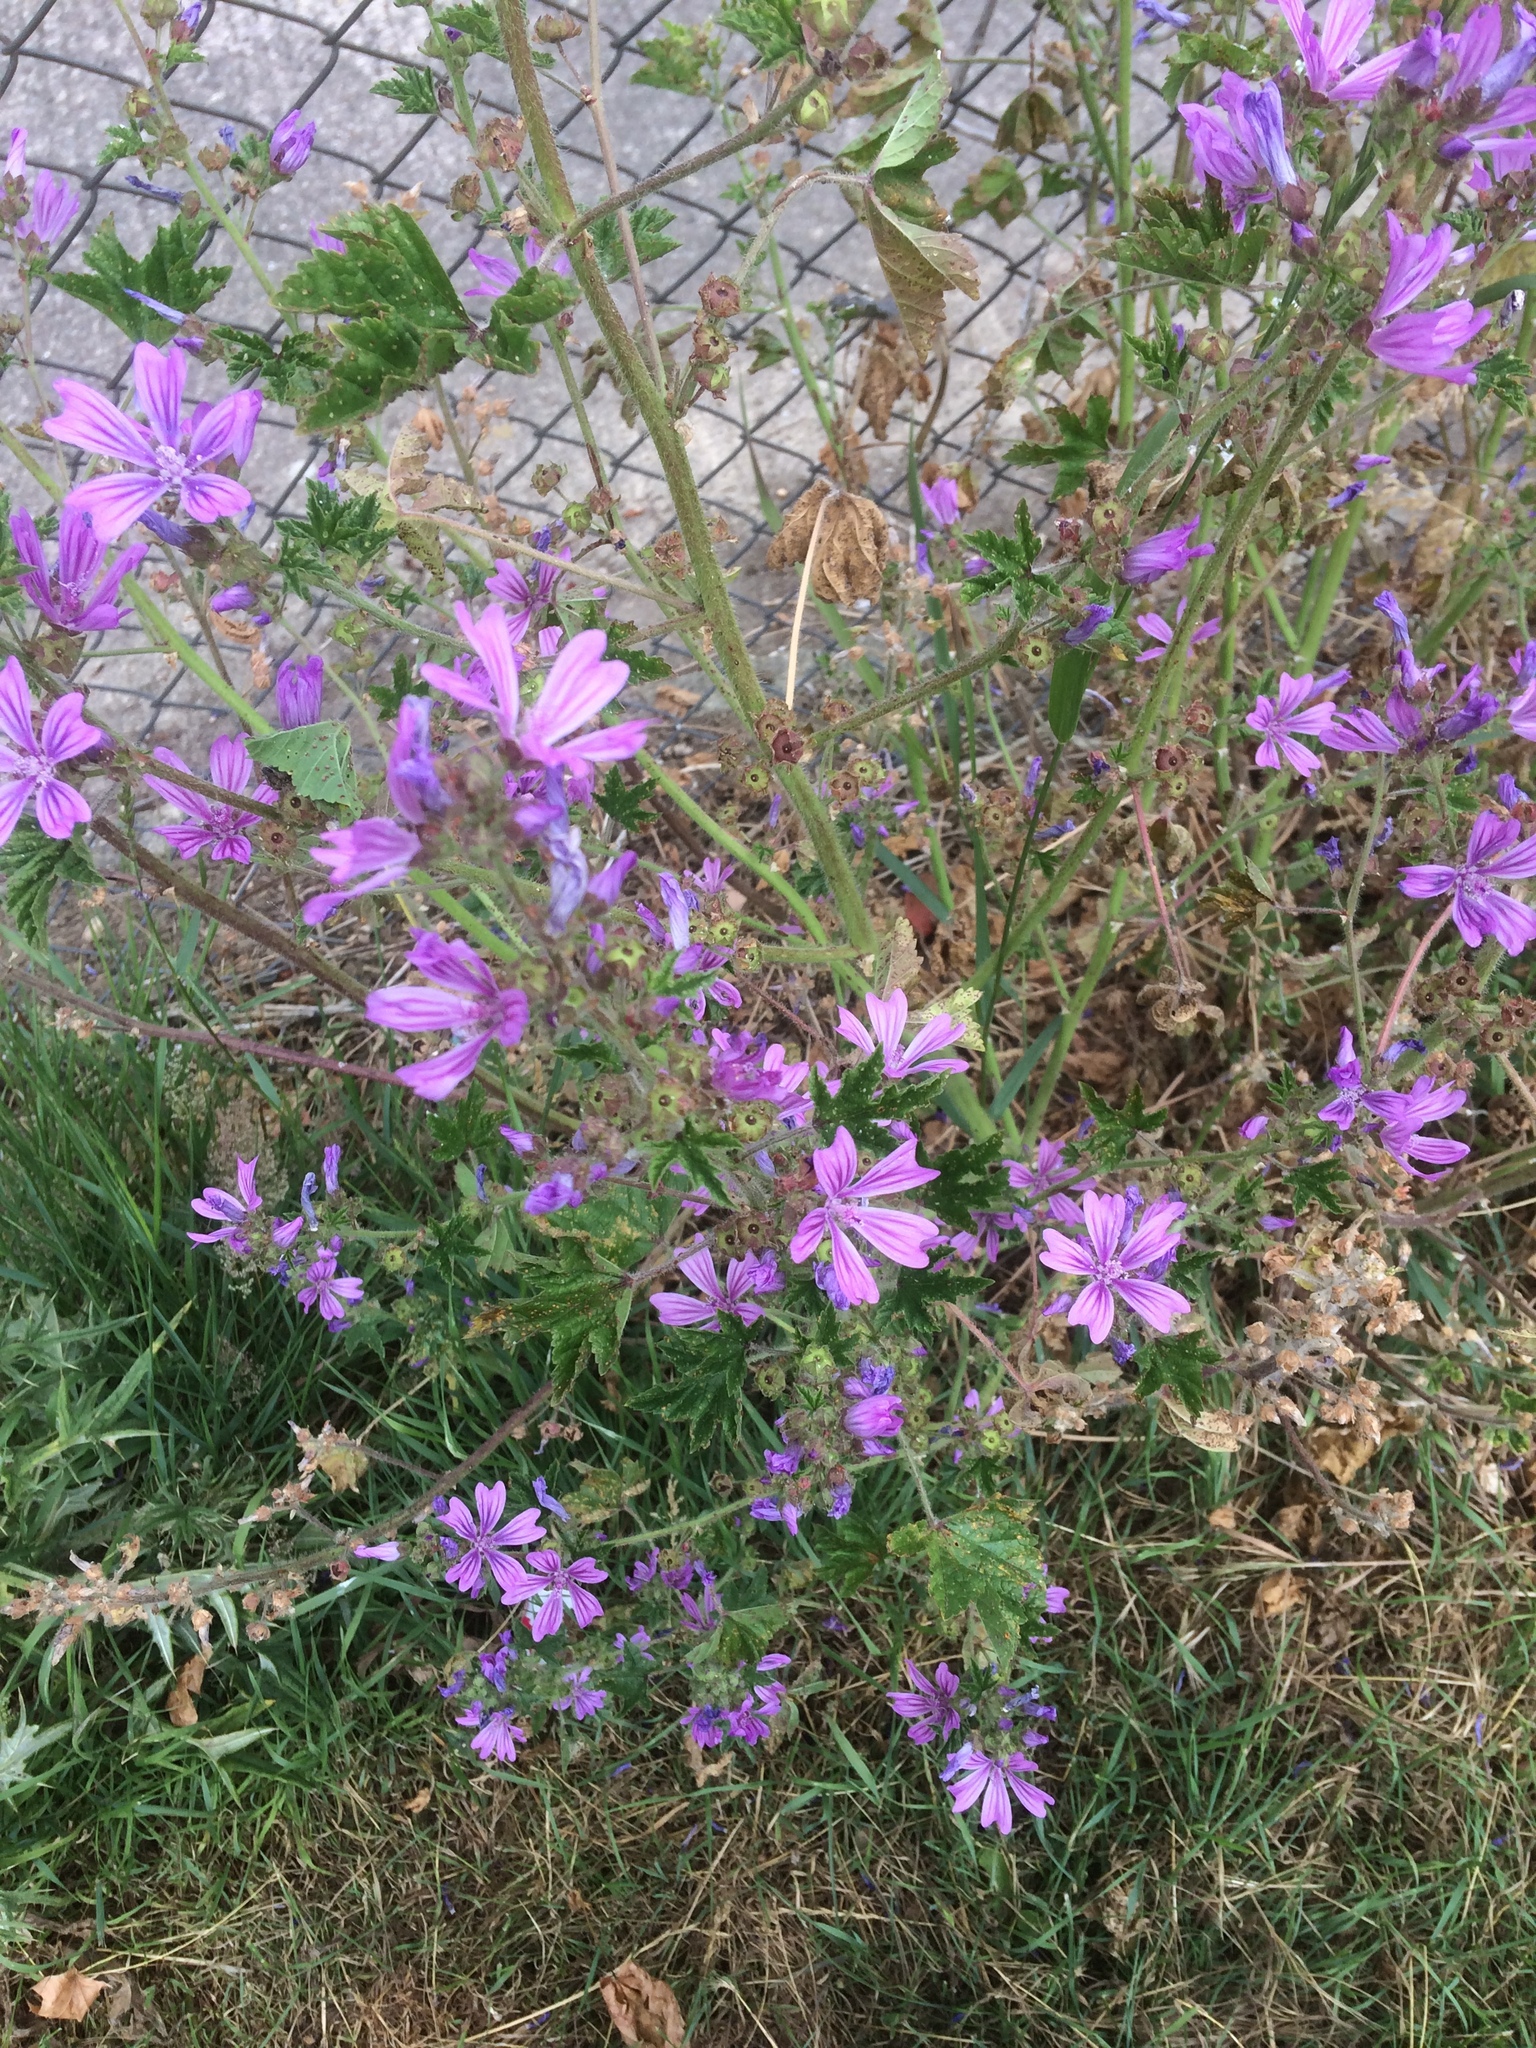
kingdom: Plantae
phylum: Tracheophyta
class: Magnoliopsida
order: Malvales
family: Malvaceae
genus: Malva
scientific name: Malva sylvestris
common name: Common mallow
